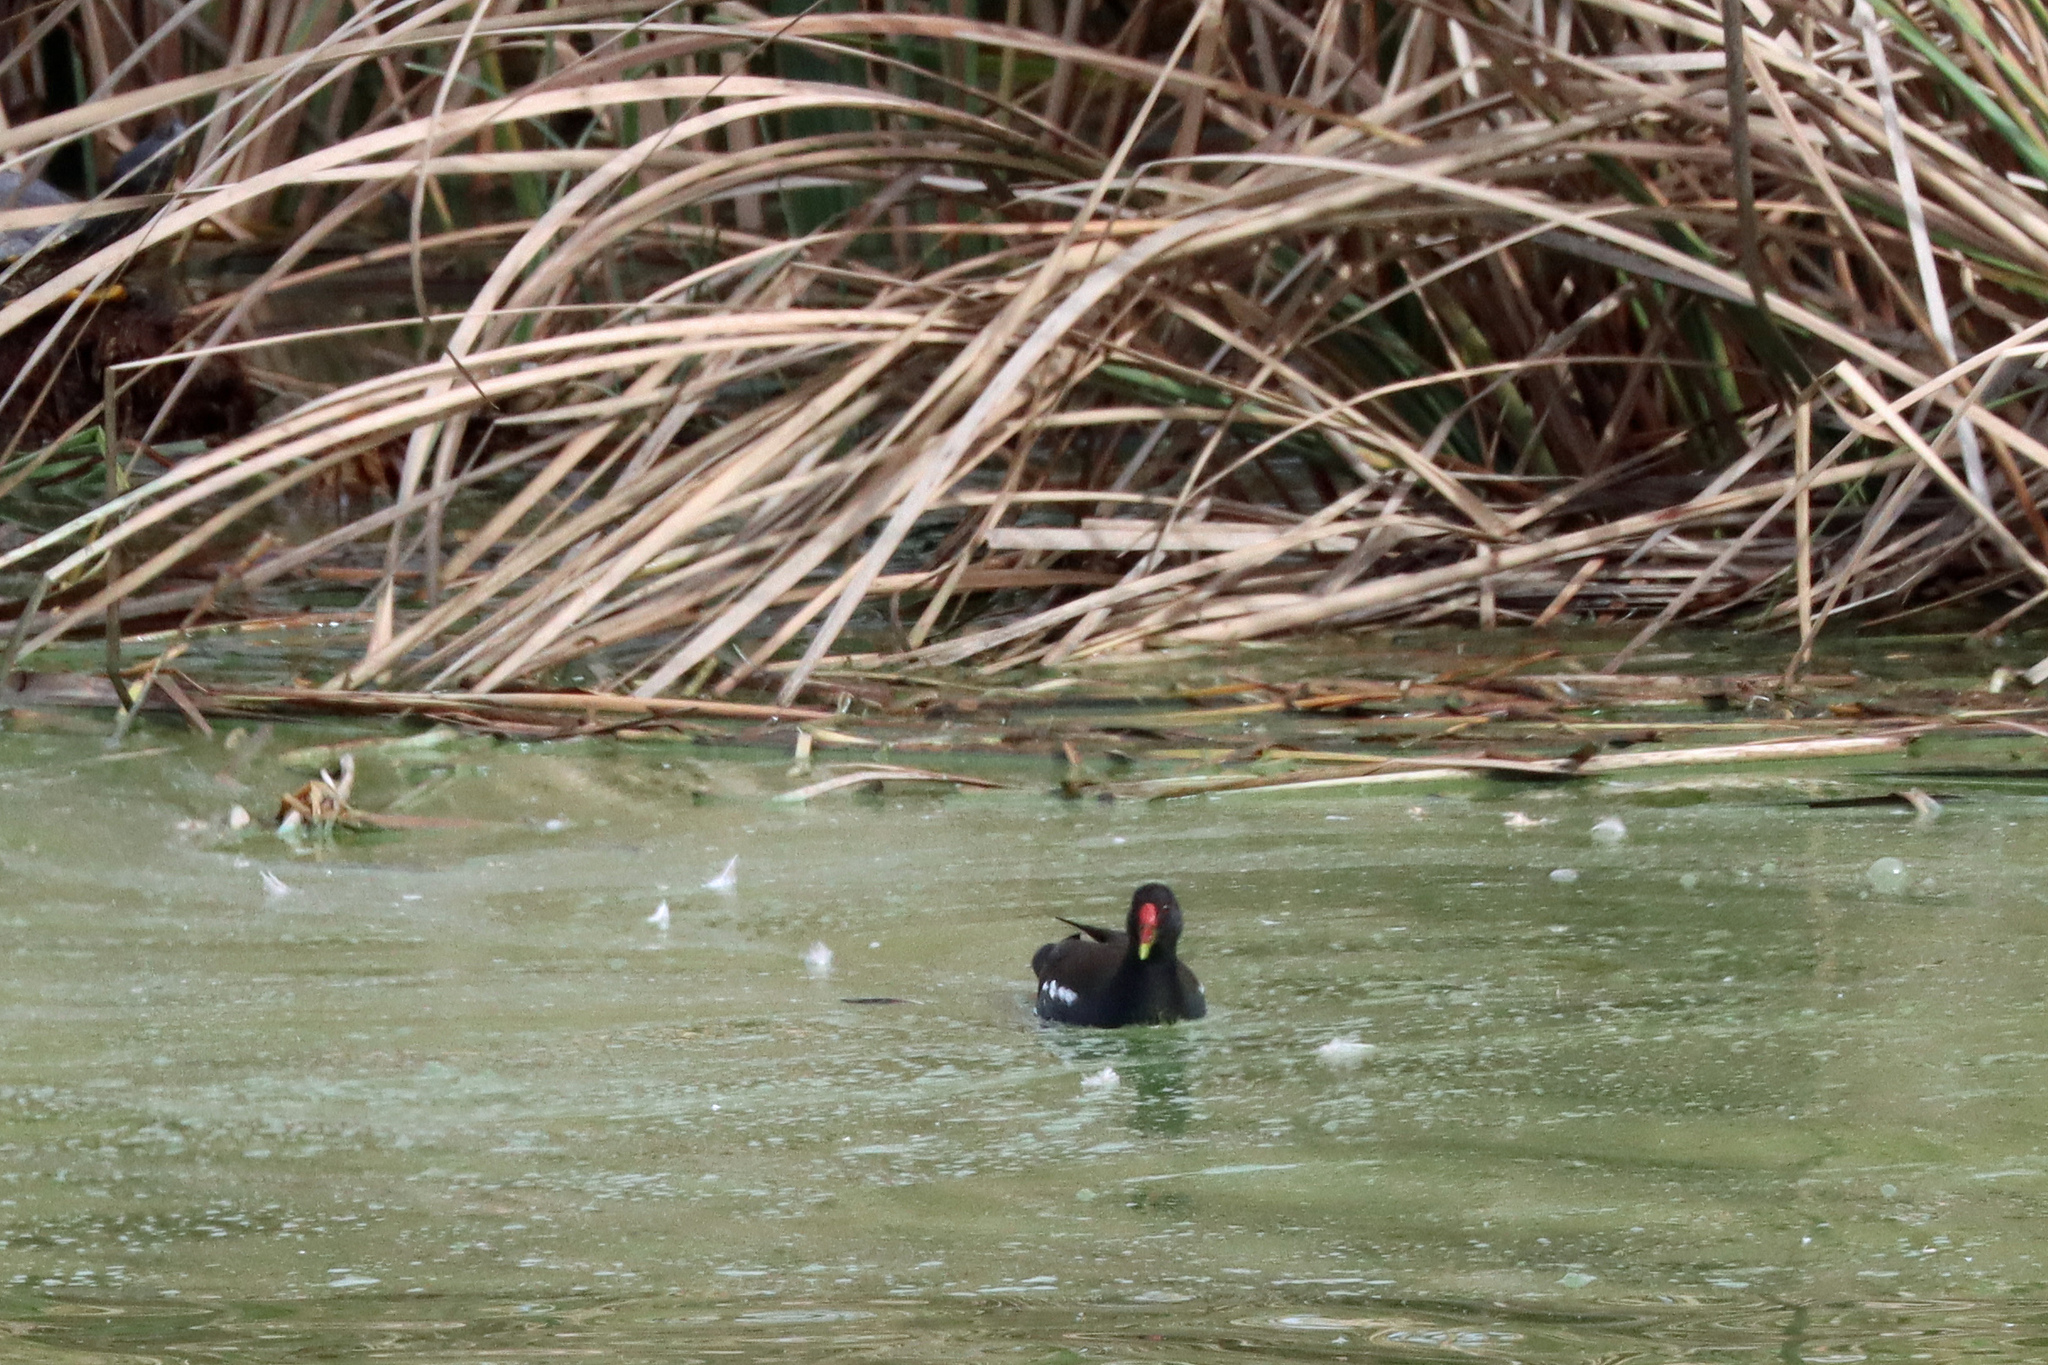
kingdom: Animalia
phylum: Chordata
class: Aves
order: Gruiformes
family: Rallidae
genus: Gallinula
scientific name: Gallinula chloropus
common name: Common moorhen
